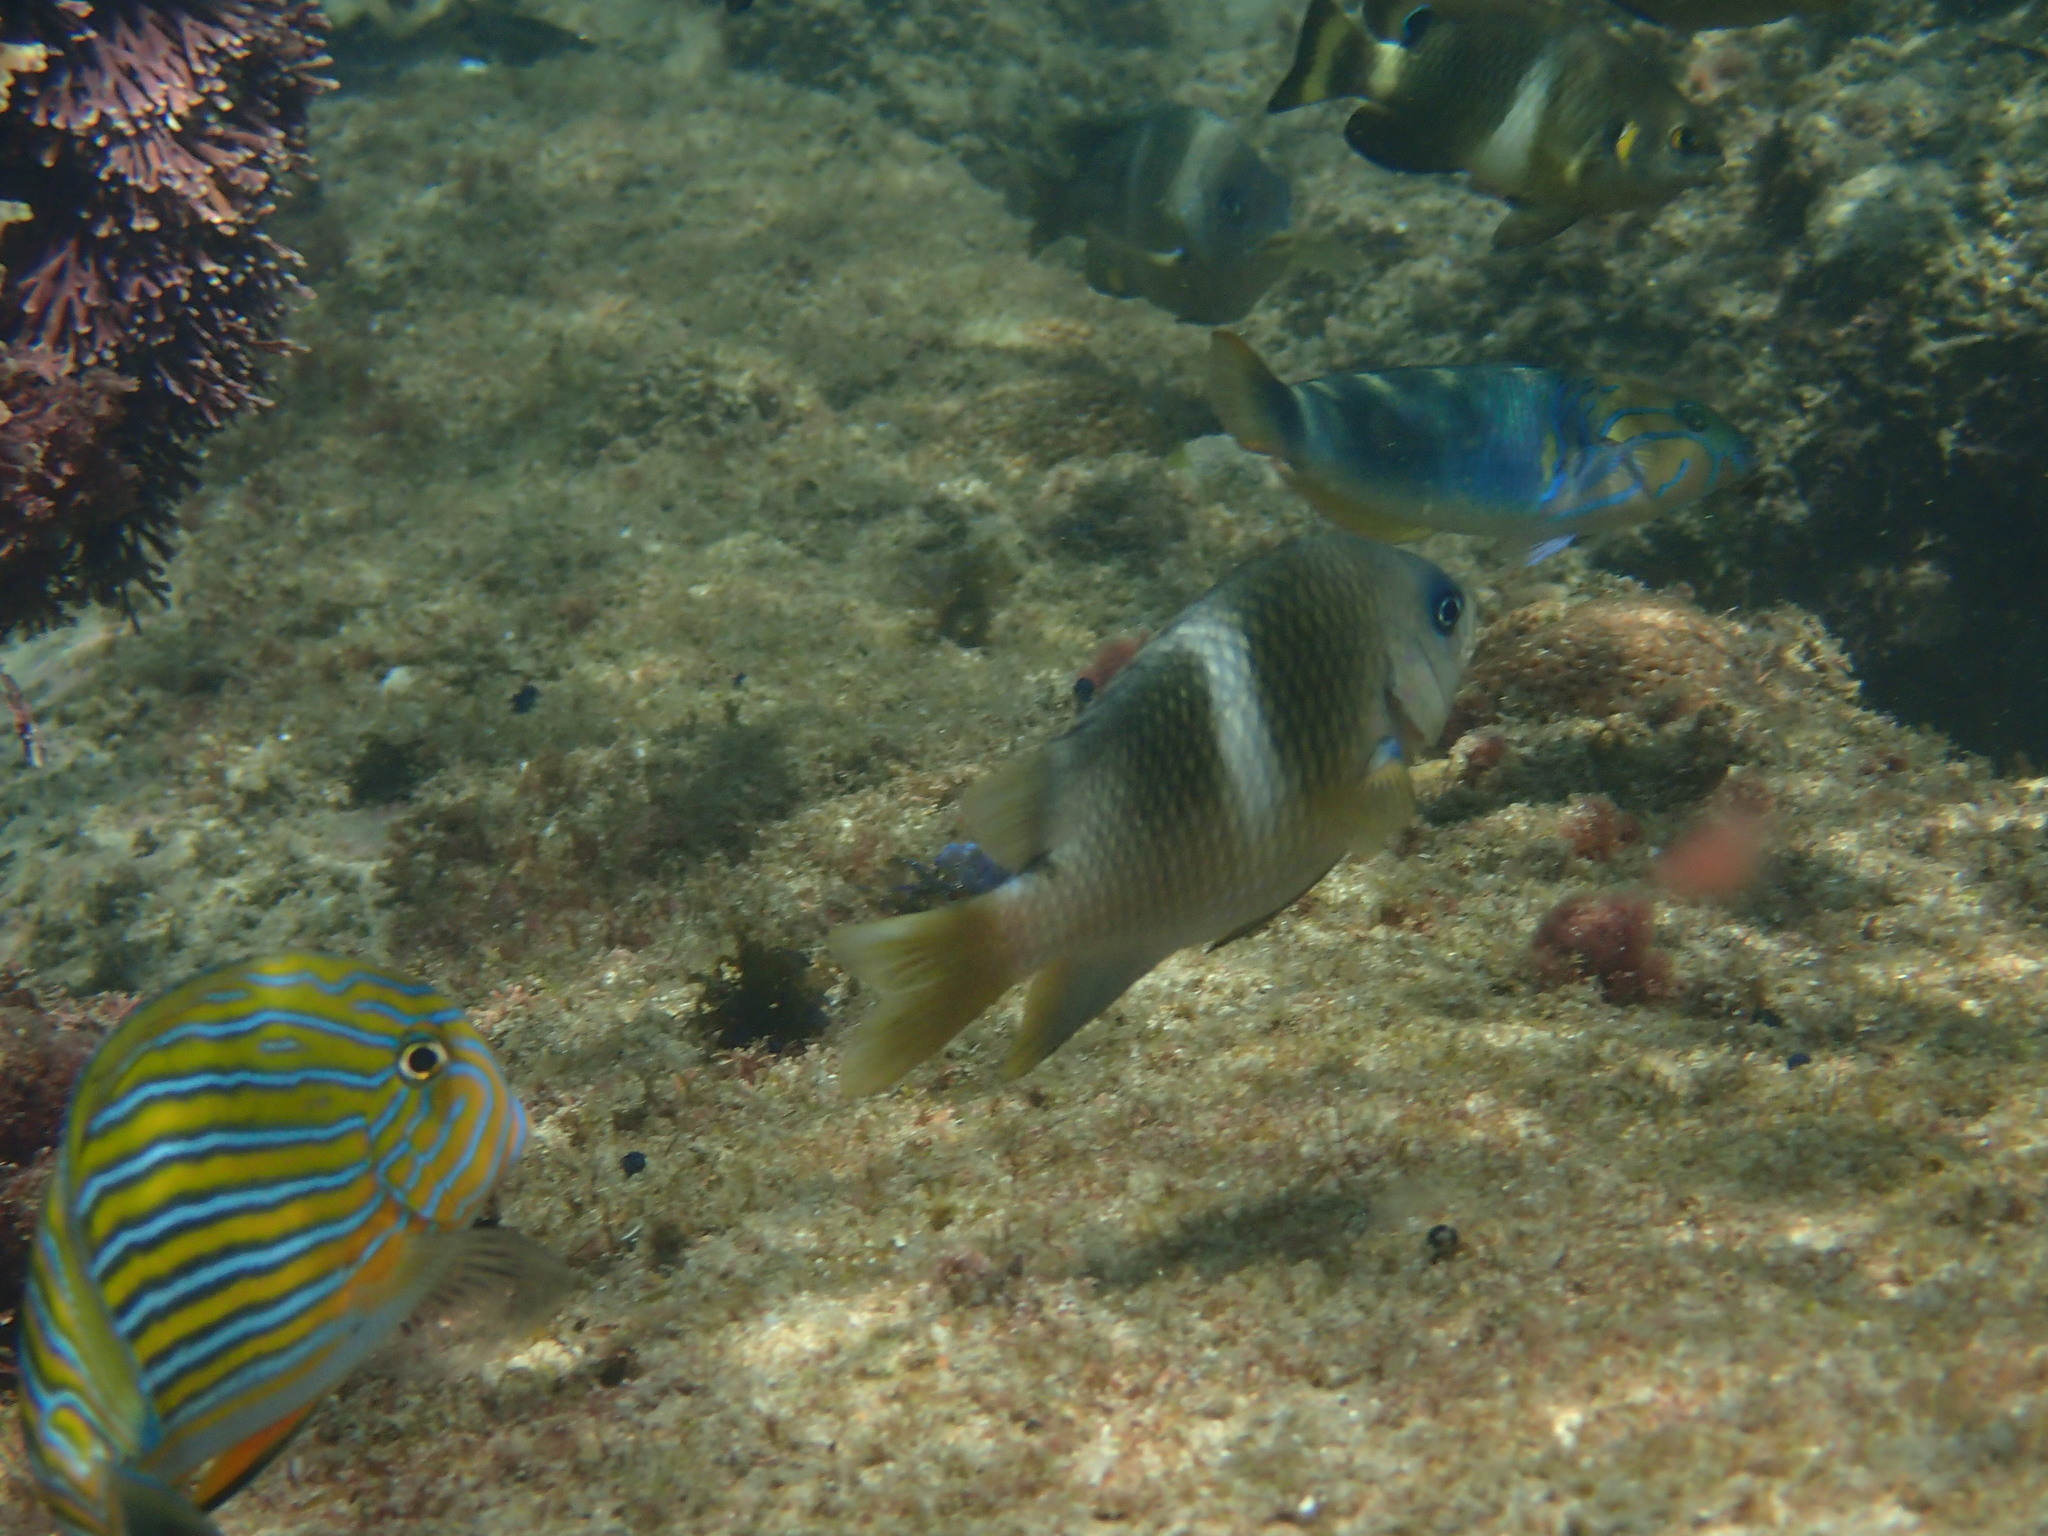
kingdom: Animalia
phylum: Chordata
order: Perciformes
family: Pomacentridae
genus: Plectroglyphidodon
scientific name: Plectroglyphidodon leucozonus
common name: White-band damsel
